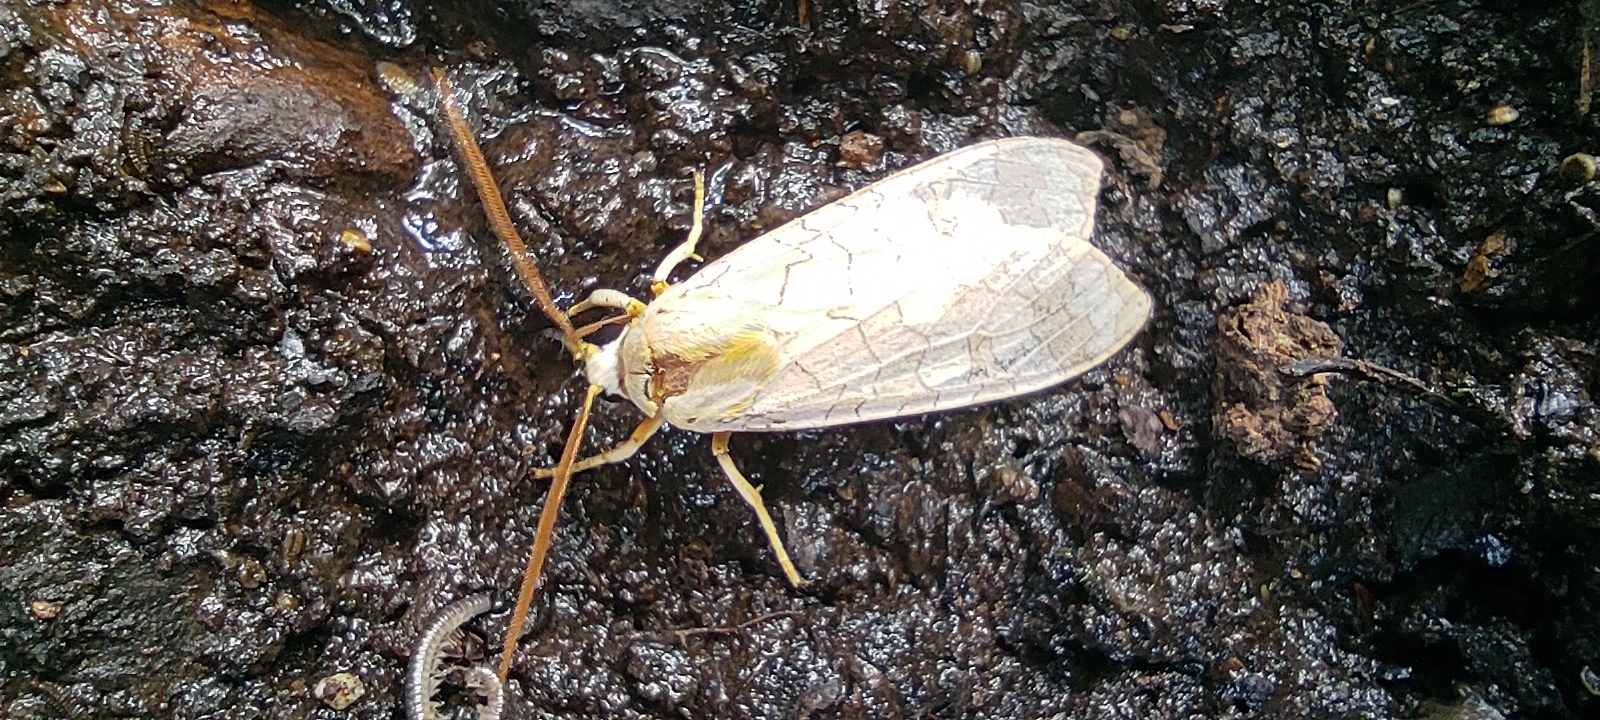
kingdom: Animalia
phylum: Arthropoda
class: Insecta
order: Lepidoptera
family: Erebidae
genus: Halysidota
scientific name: Halysidota
